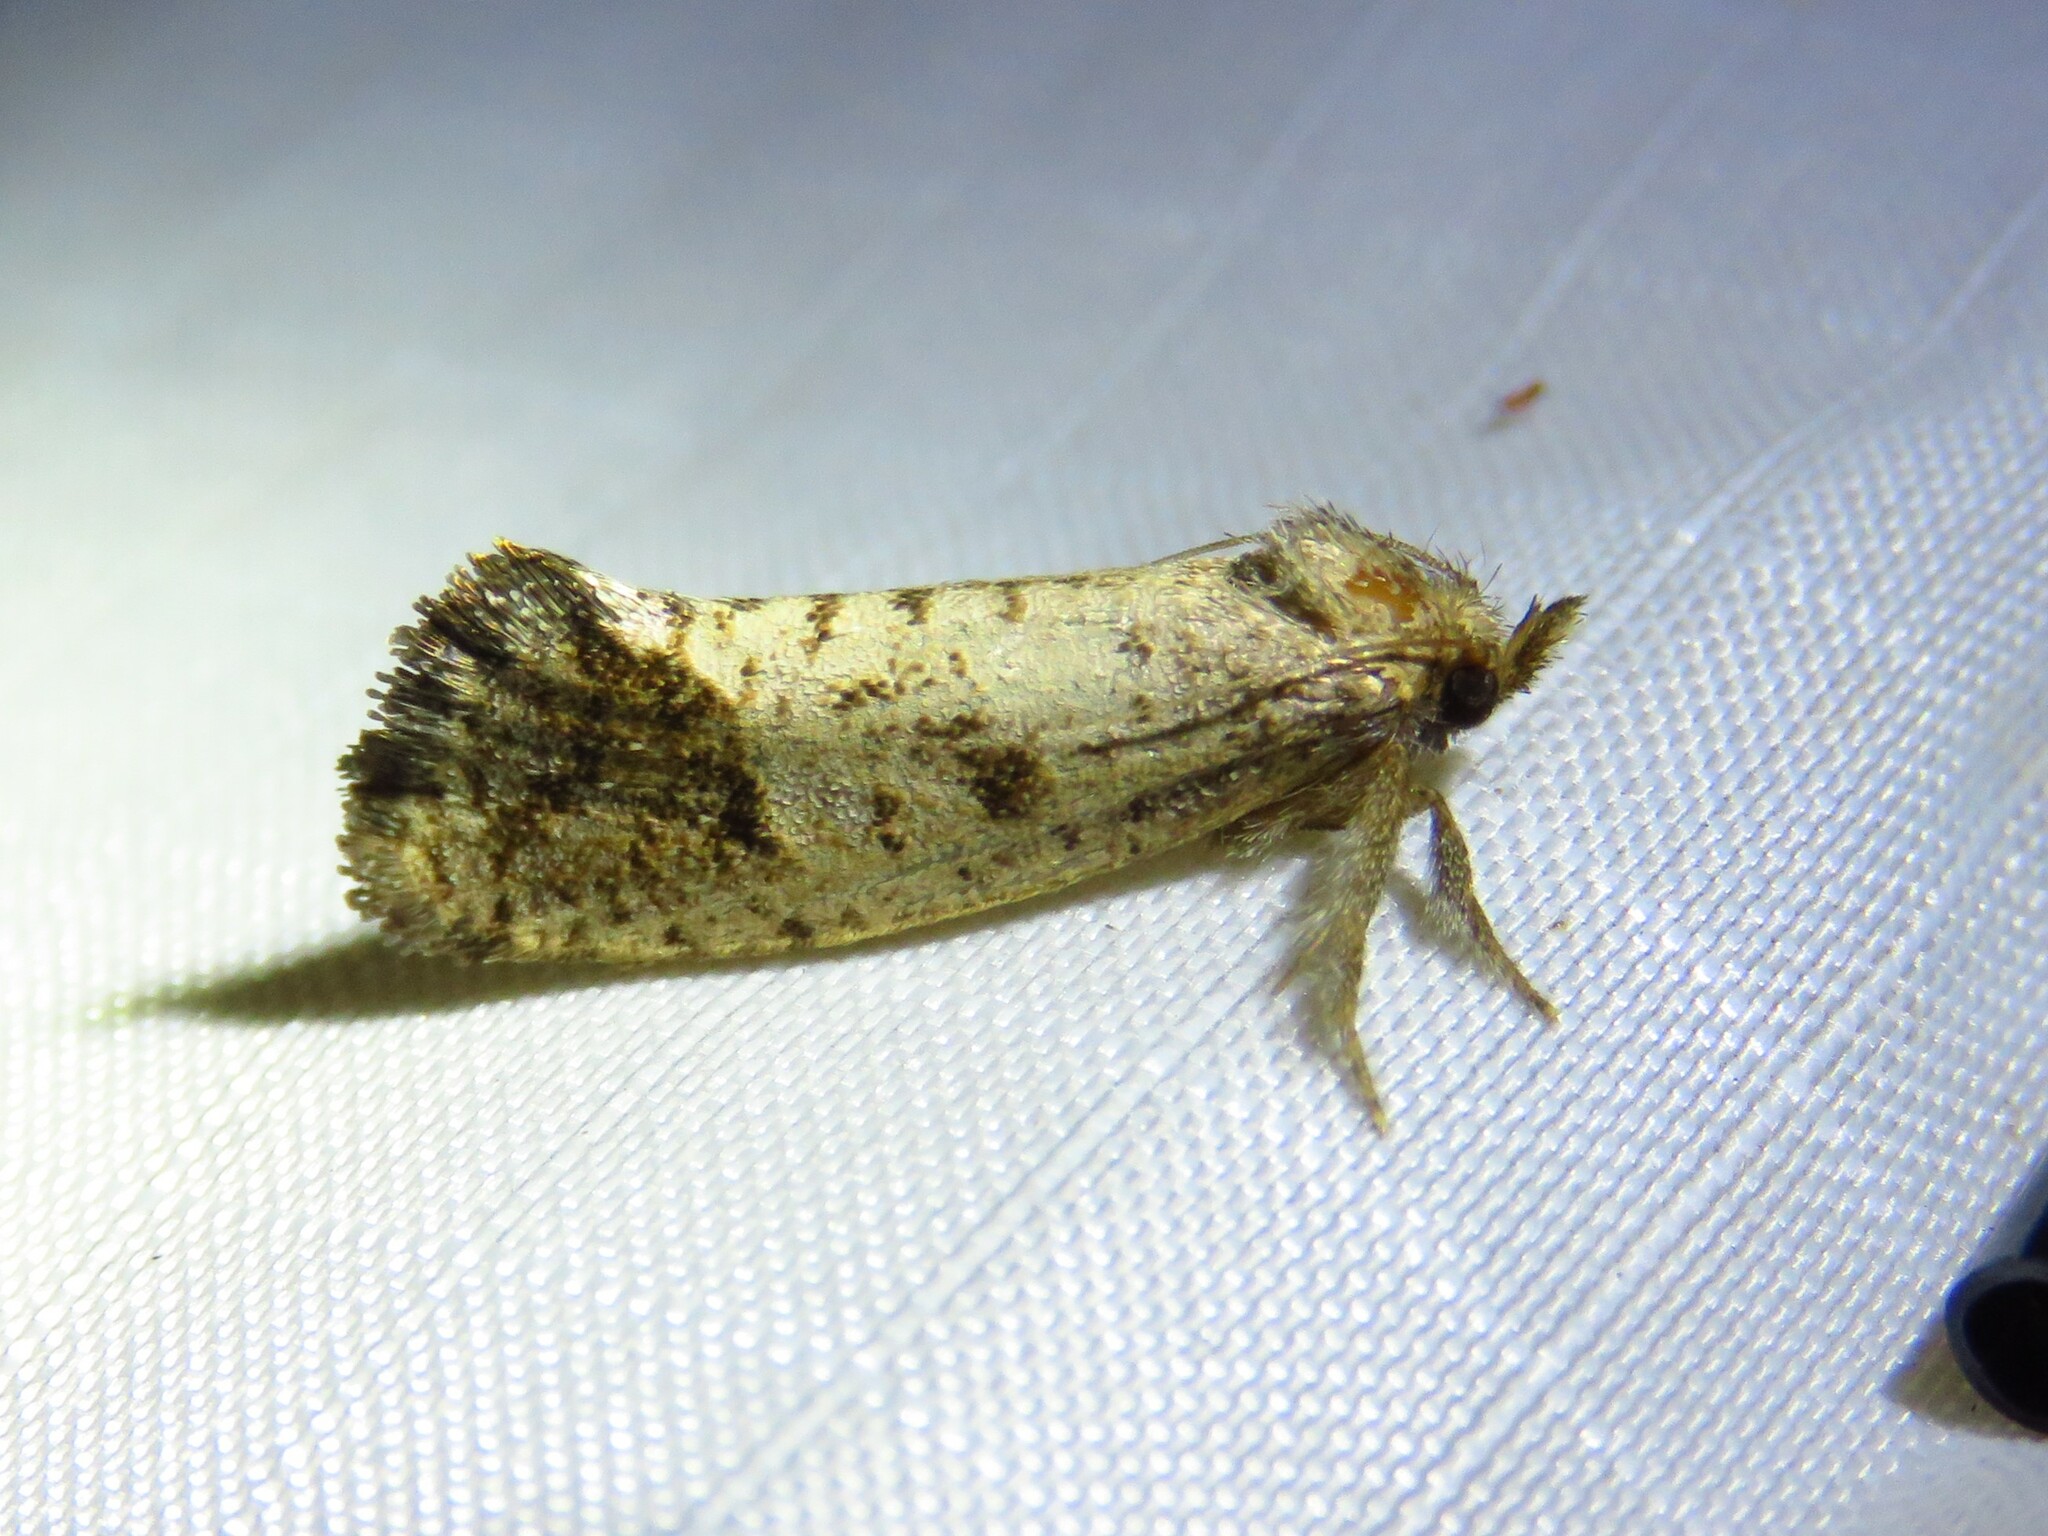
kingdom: Animalia
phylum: Arthropoda
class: Insecta
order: Lepidoptera
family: Tineidae
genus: Acrolophus
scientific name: Acrolophus texanella
